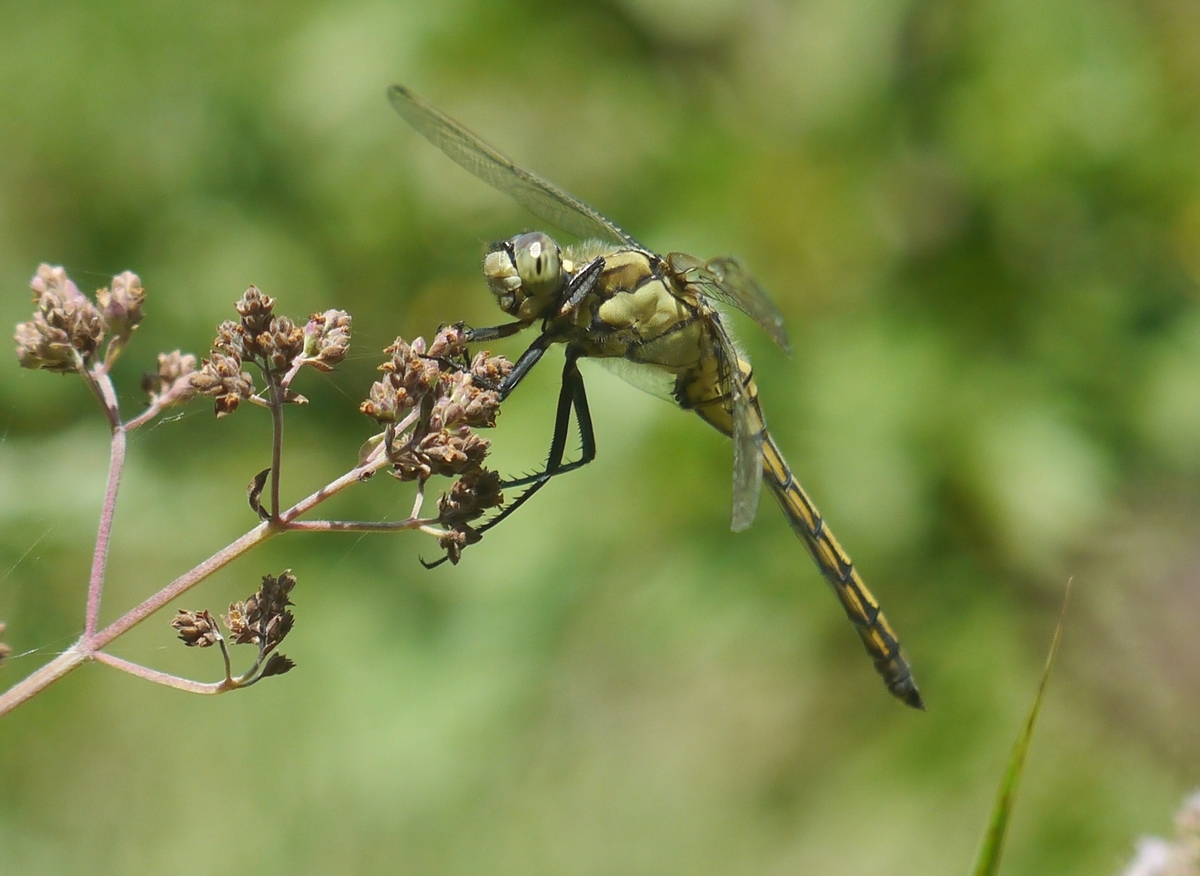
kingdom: Animalia
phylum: Arthropoda
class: Insecta
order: Odonata
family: Libellulidae
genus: Orthetrum
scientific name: Orthetrum cancellatum
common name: Black-tailed skimmer
